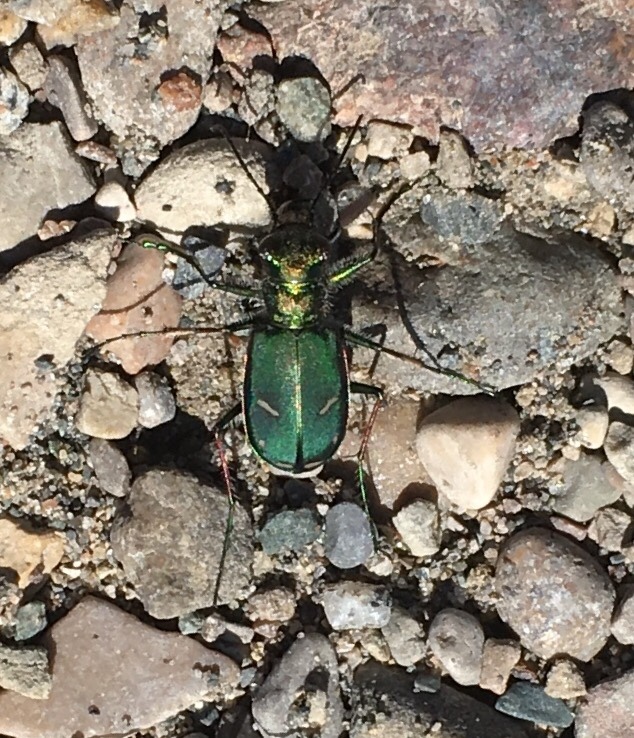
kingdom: Animalia
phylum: Arthropoda
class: Insecta
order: Coleoptera
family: Carabidae
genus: Cicindela
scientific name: Cicindela purpurea
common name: Cow path tiger beetle
